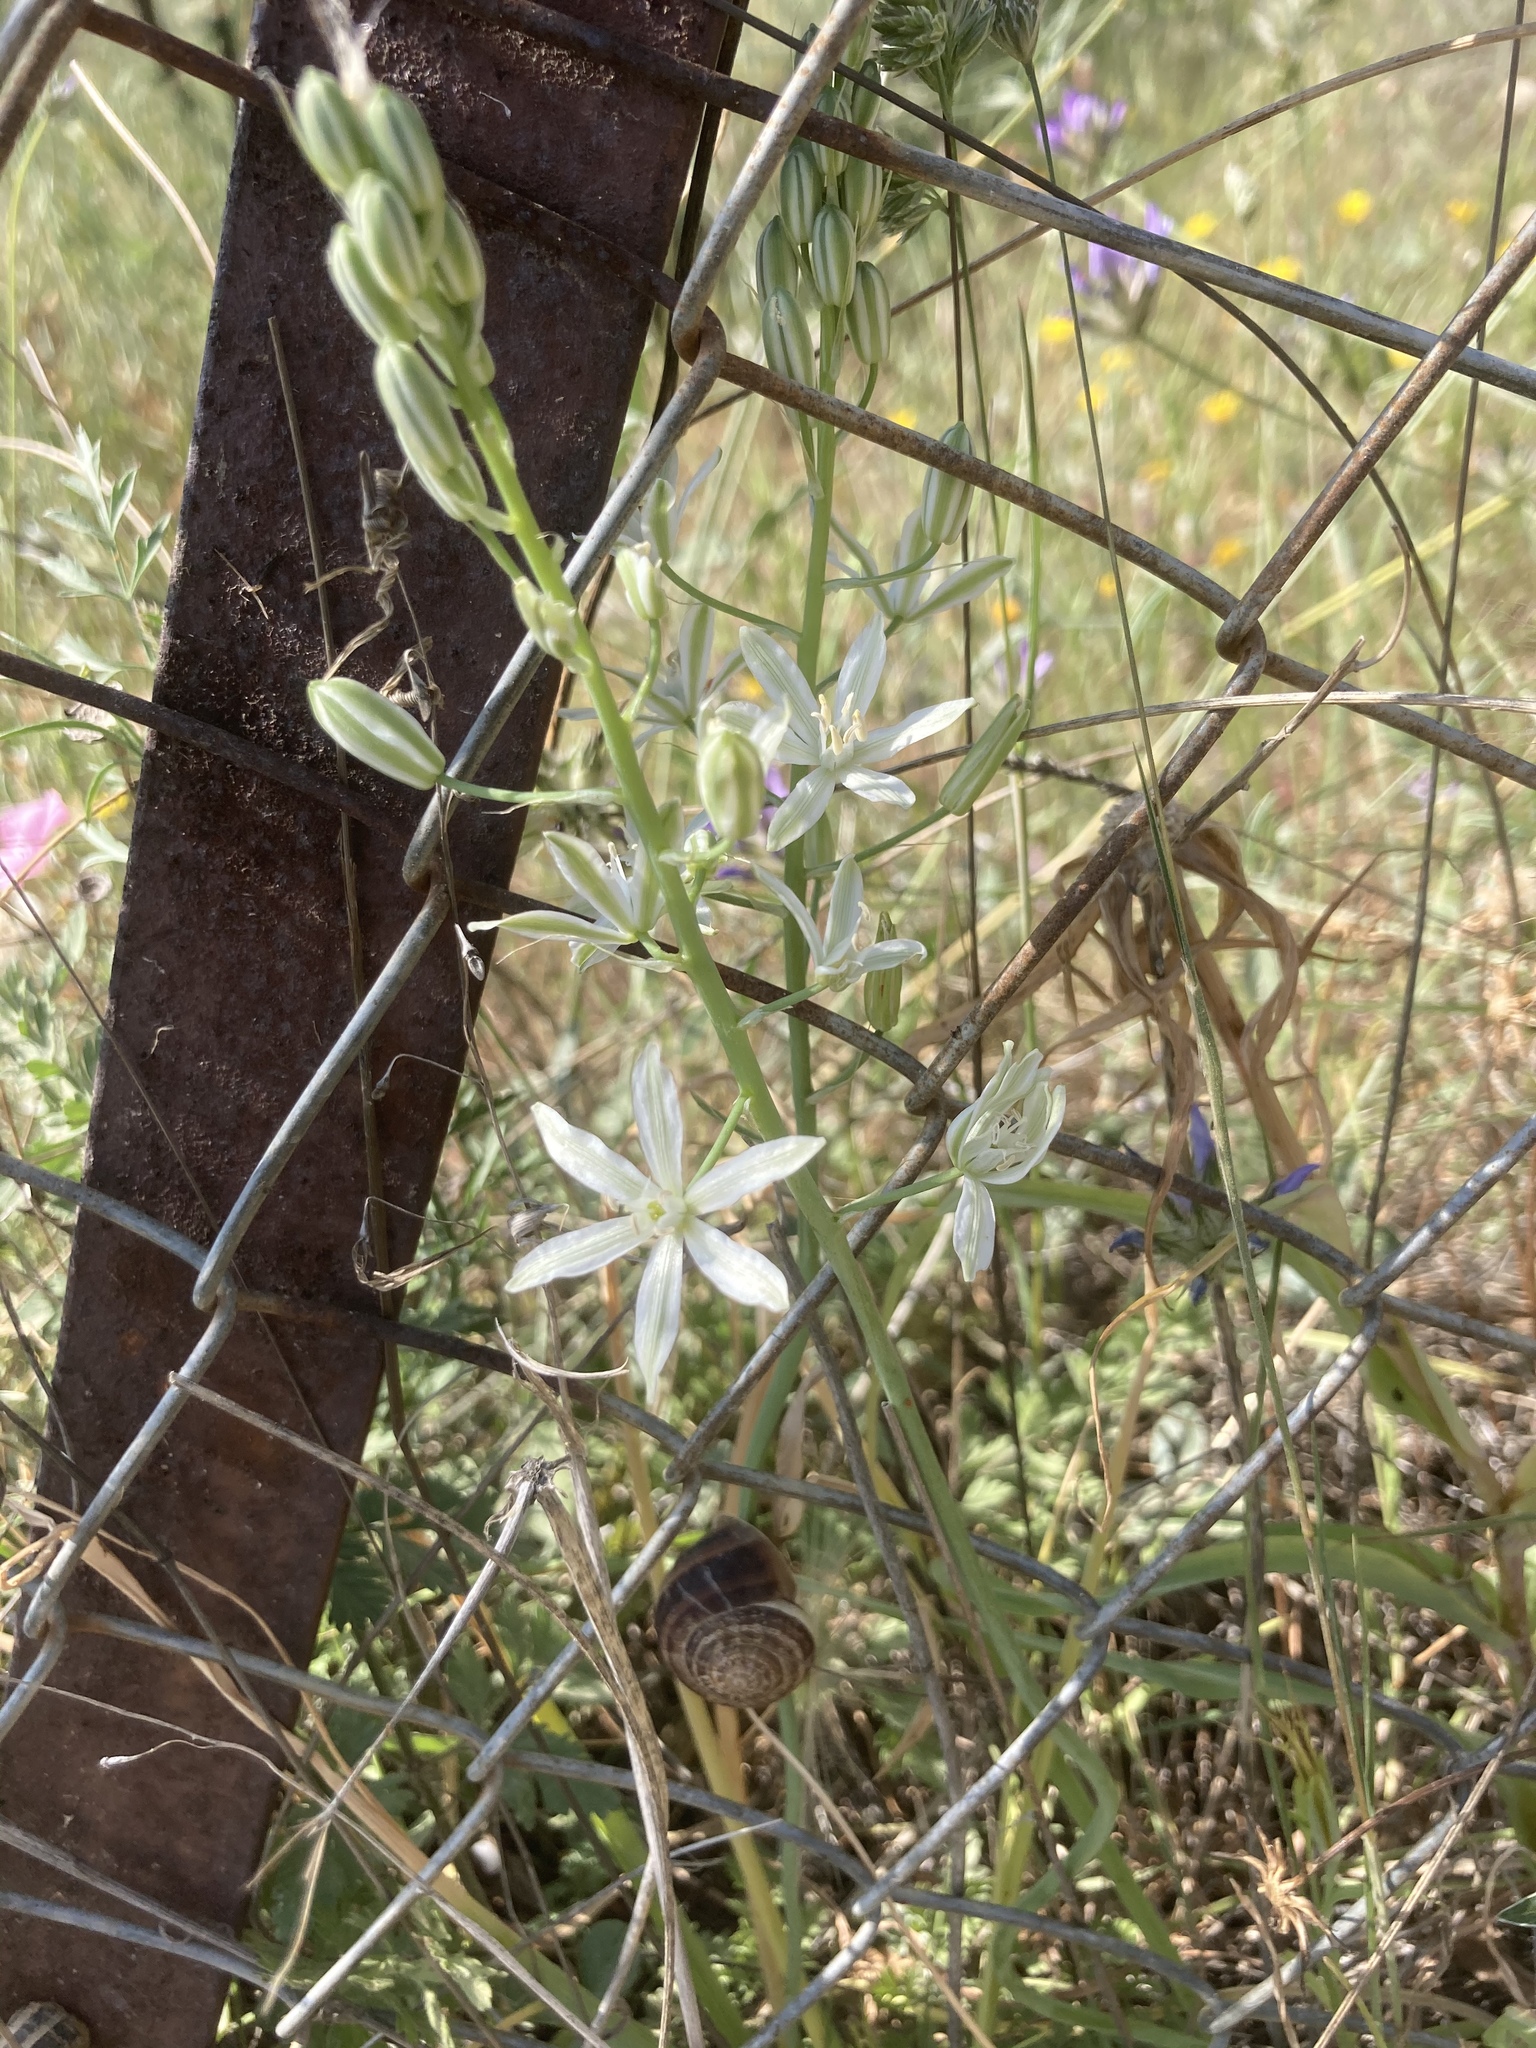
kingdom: Plantae
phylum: Tracheophyta
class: Liliopsida
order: Asparagales
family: Asparagaceae
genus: Ornithogalum
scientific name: Ornithogalum narbonense
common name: Bath-asparagus
